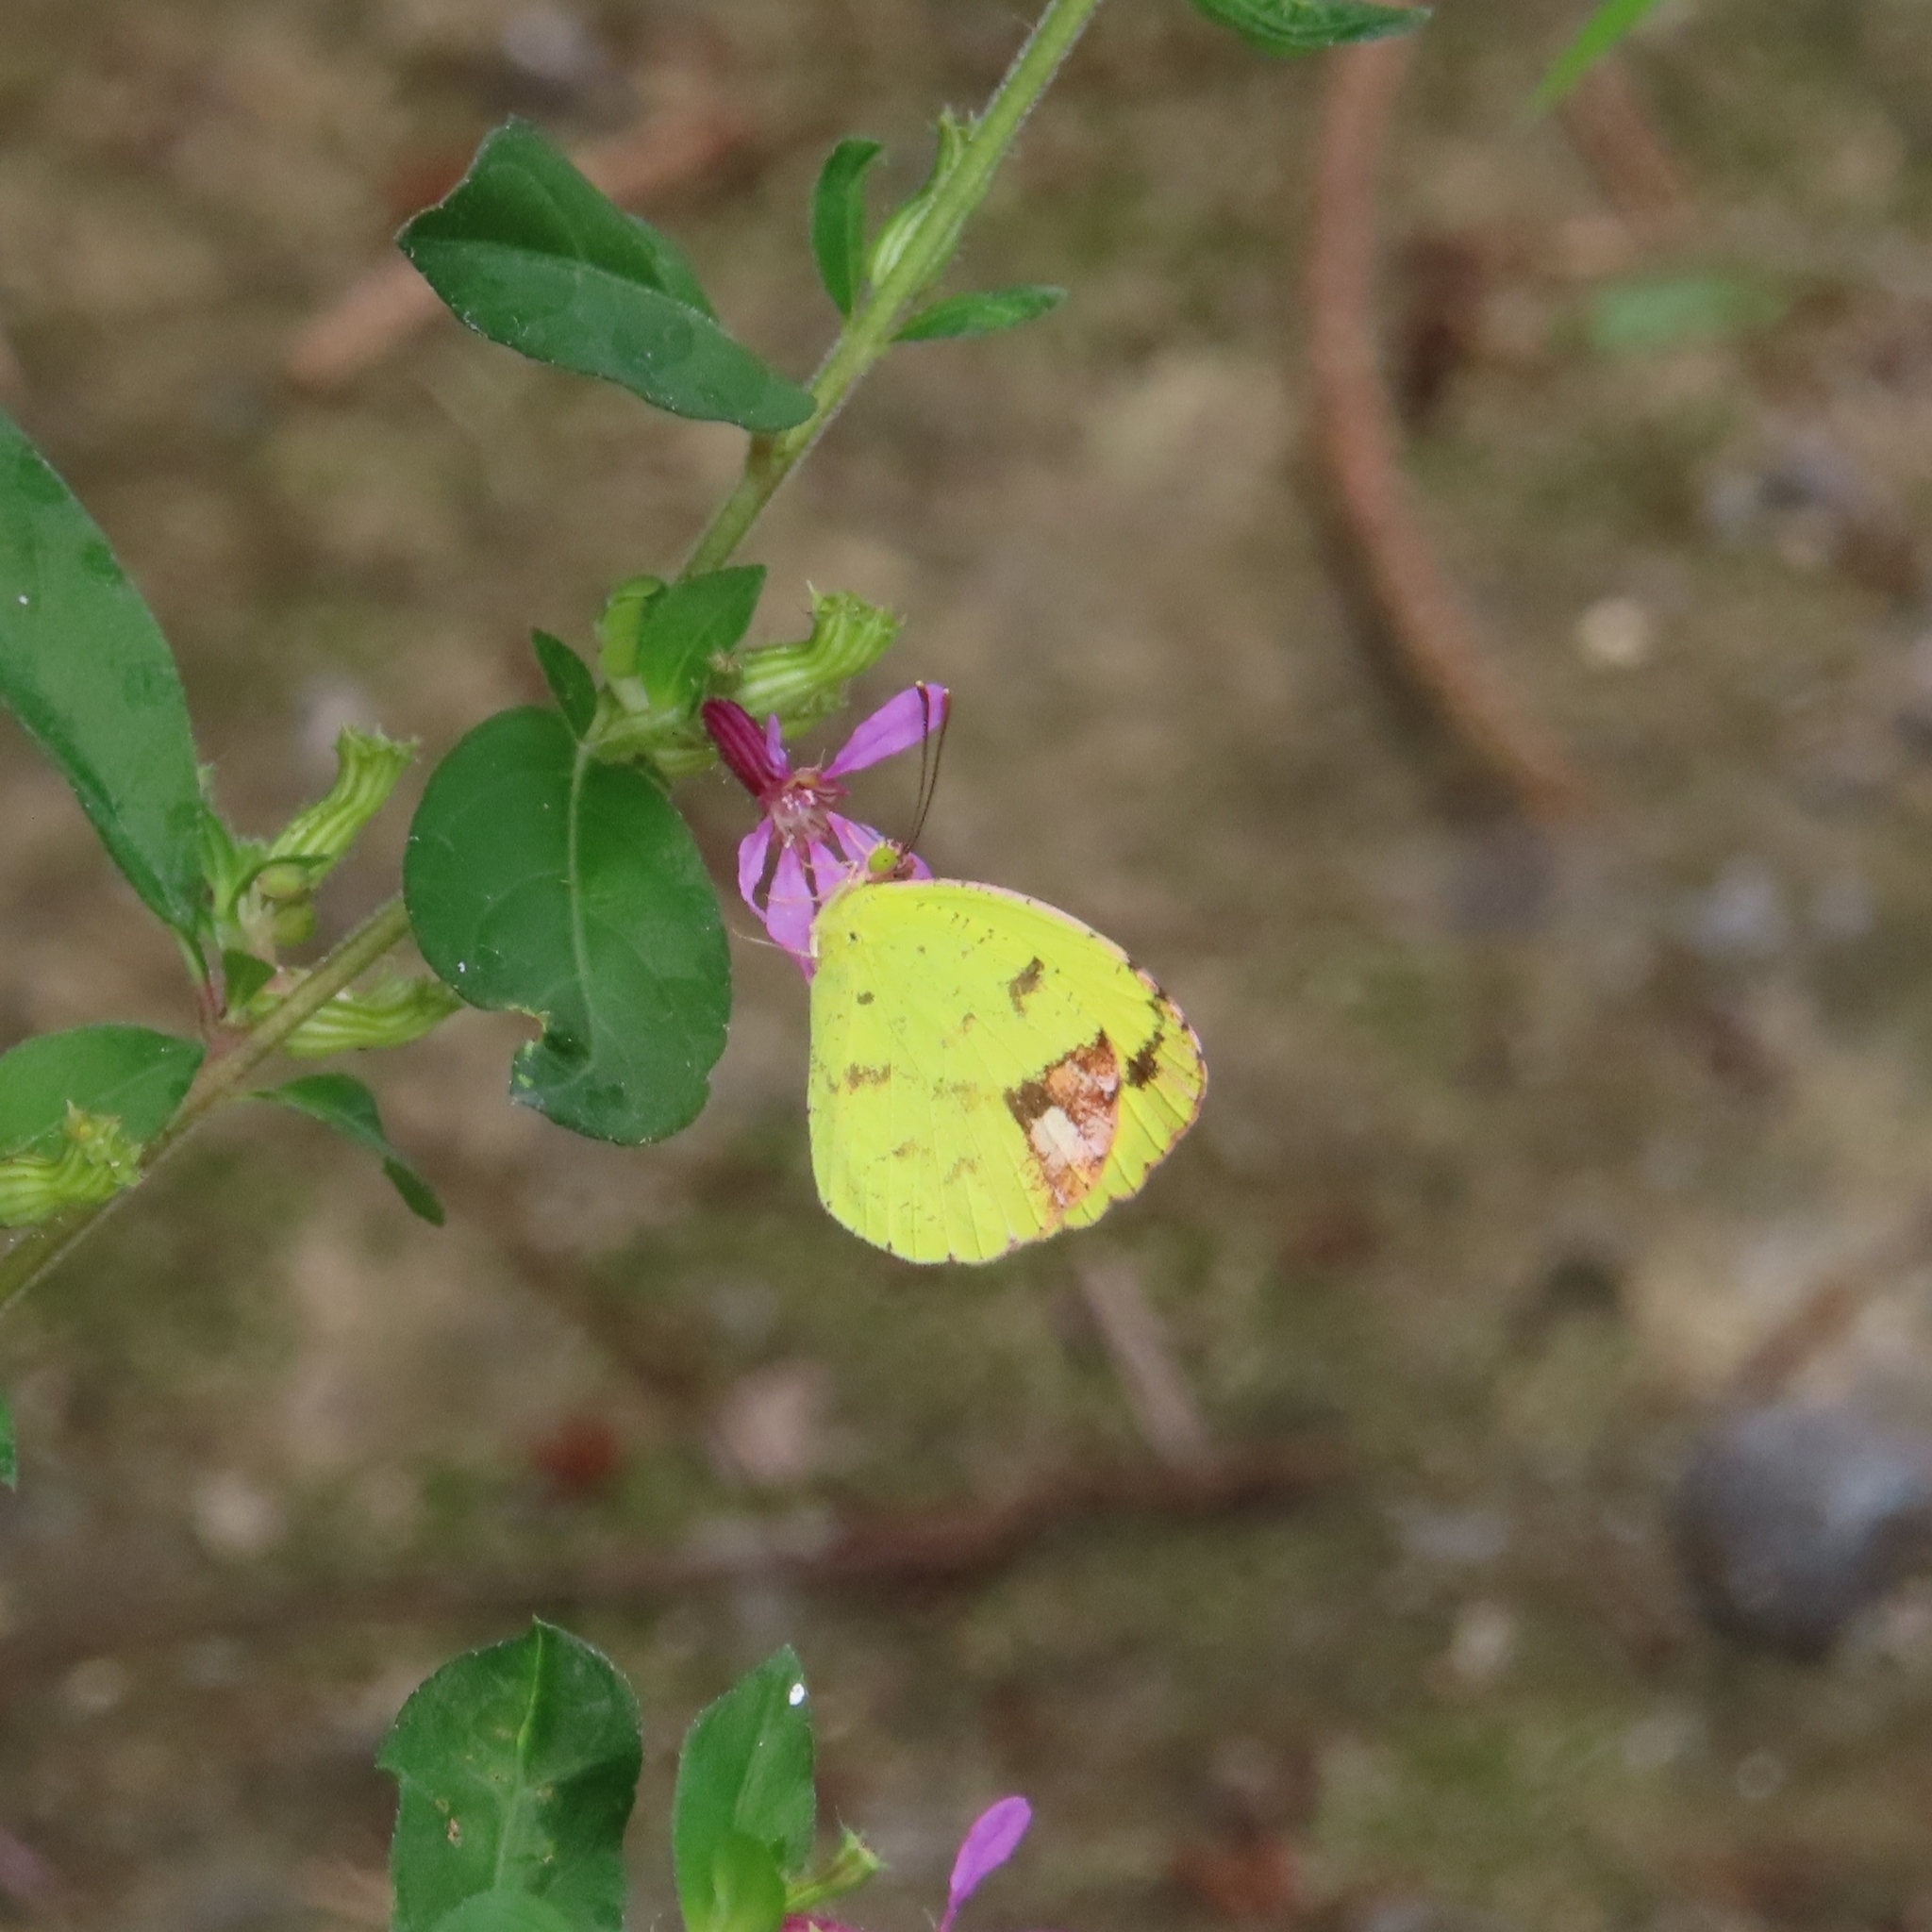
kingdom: Animalia
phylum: Arthropoda
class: Insecta
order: Lepidoptera
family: Pieridae
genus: Pyrisitia
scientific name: Pyrisitia portoricensis
